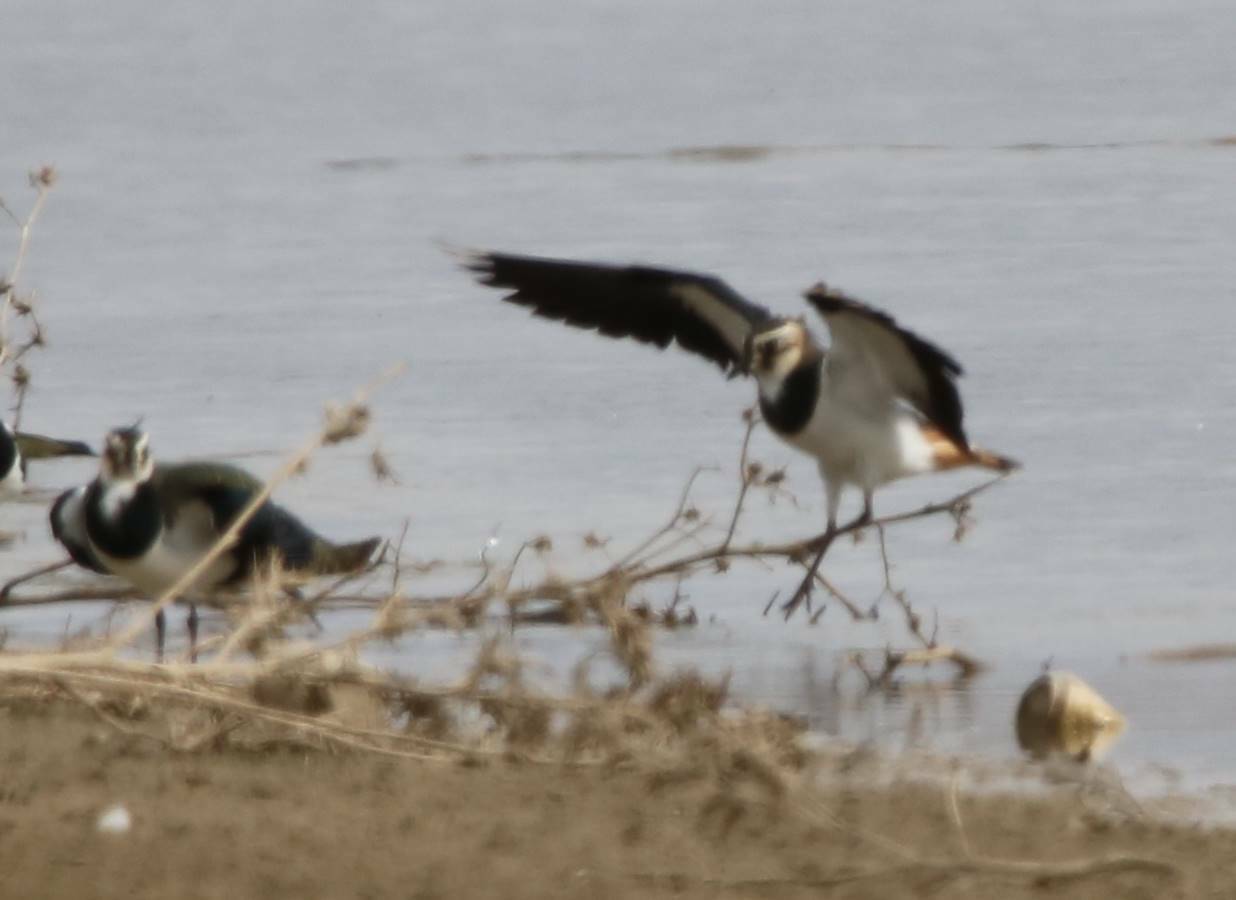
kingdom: Animalia
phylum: Chordata
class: Aves
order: Charadriiformes
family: Charadriidae
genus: Vanellus
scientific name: Vanellus vanellus
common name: Northern lapwing
